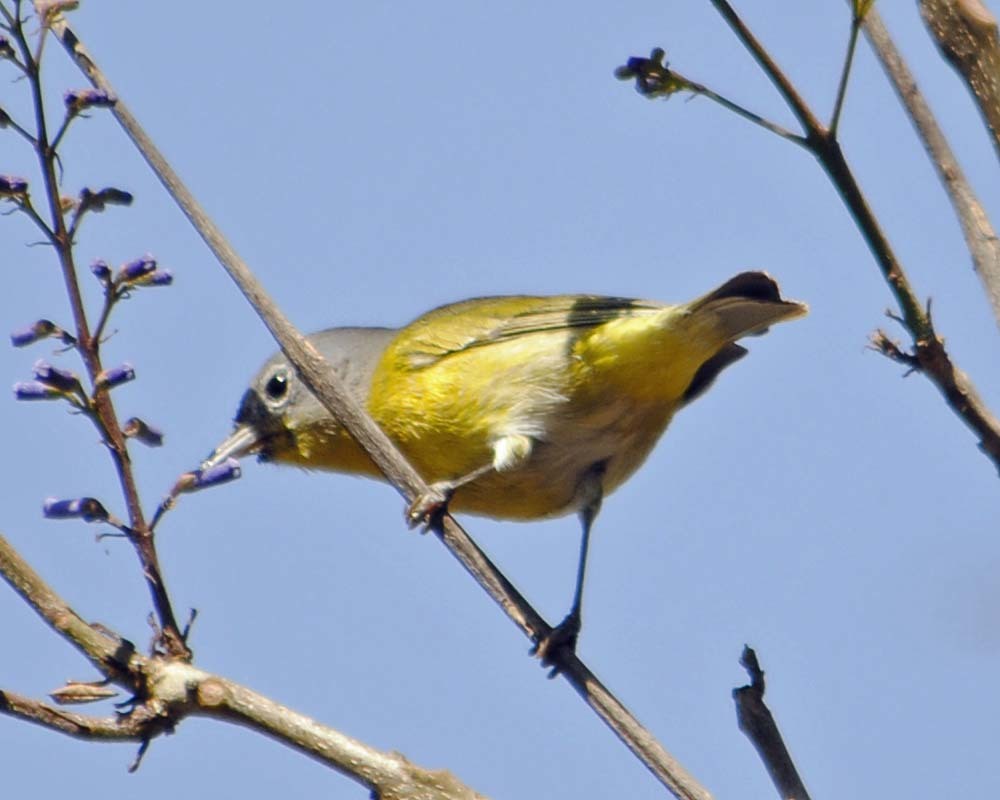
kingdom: Animalia
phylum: Chordata
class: Aves
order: Passeriformes
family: Parulidae
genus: Leiothlypis
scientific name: Leiothlypis ruficapilla
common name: Nashville warbler
